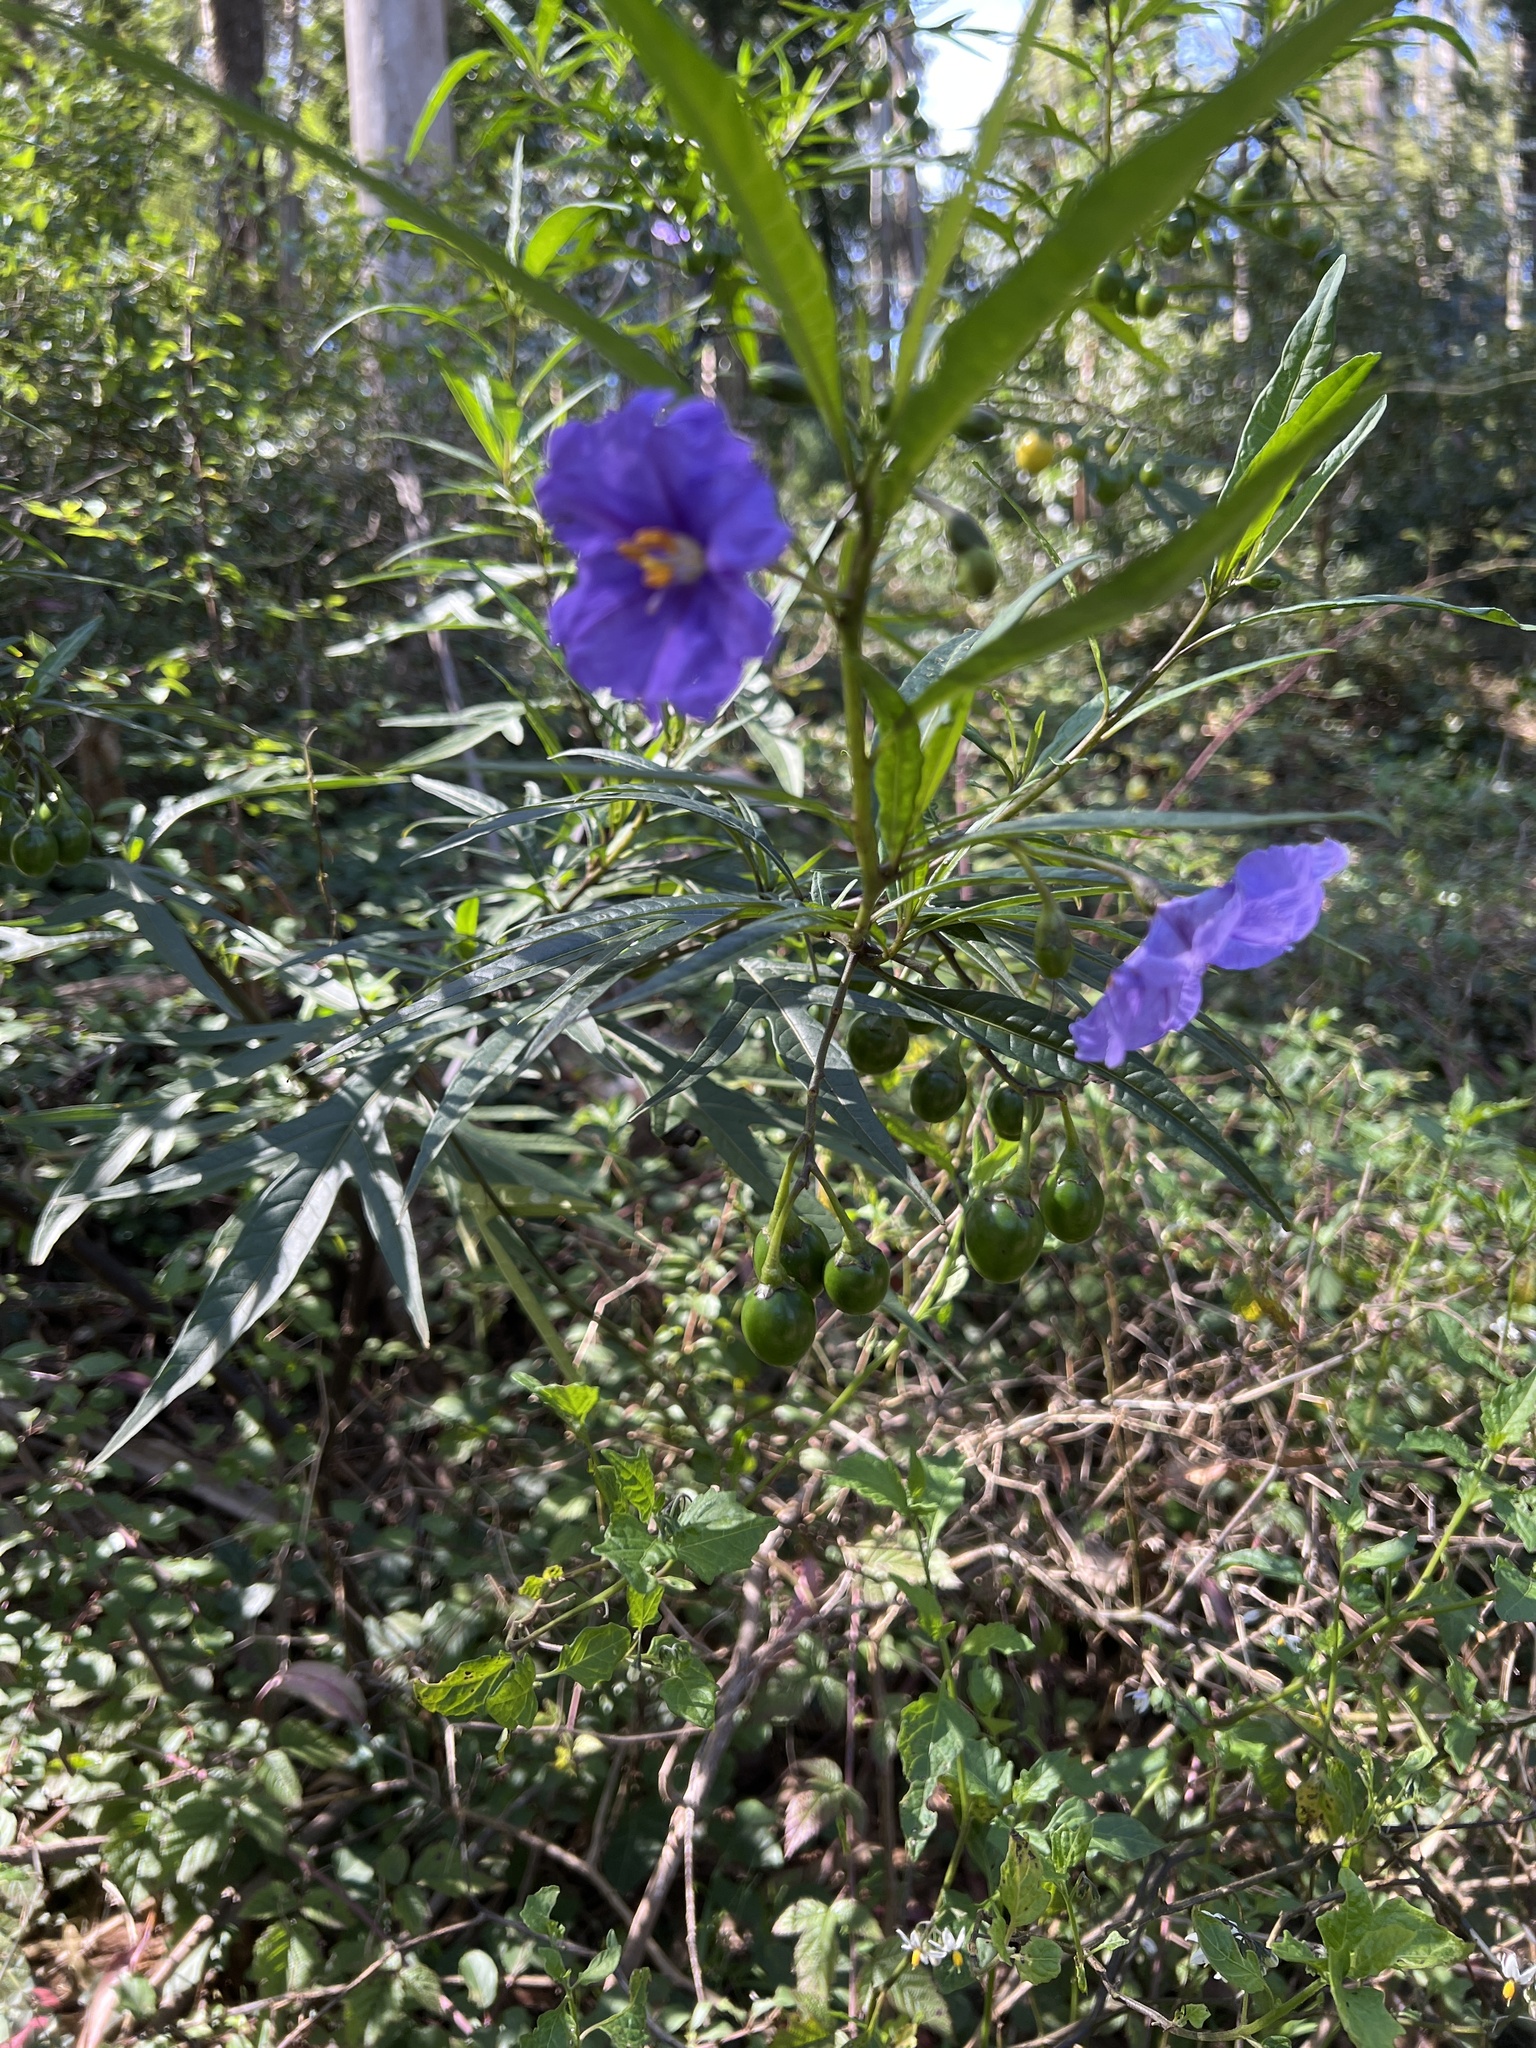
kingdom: Plantae
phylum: Tracheophyta
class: Magnoliopsida
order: Solanales
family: Solanaceae
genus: Solanum
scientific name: Solanum laciniatum
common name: Kangaroo-apple
